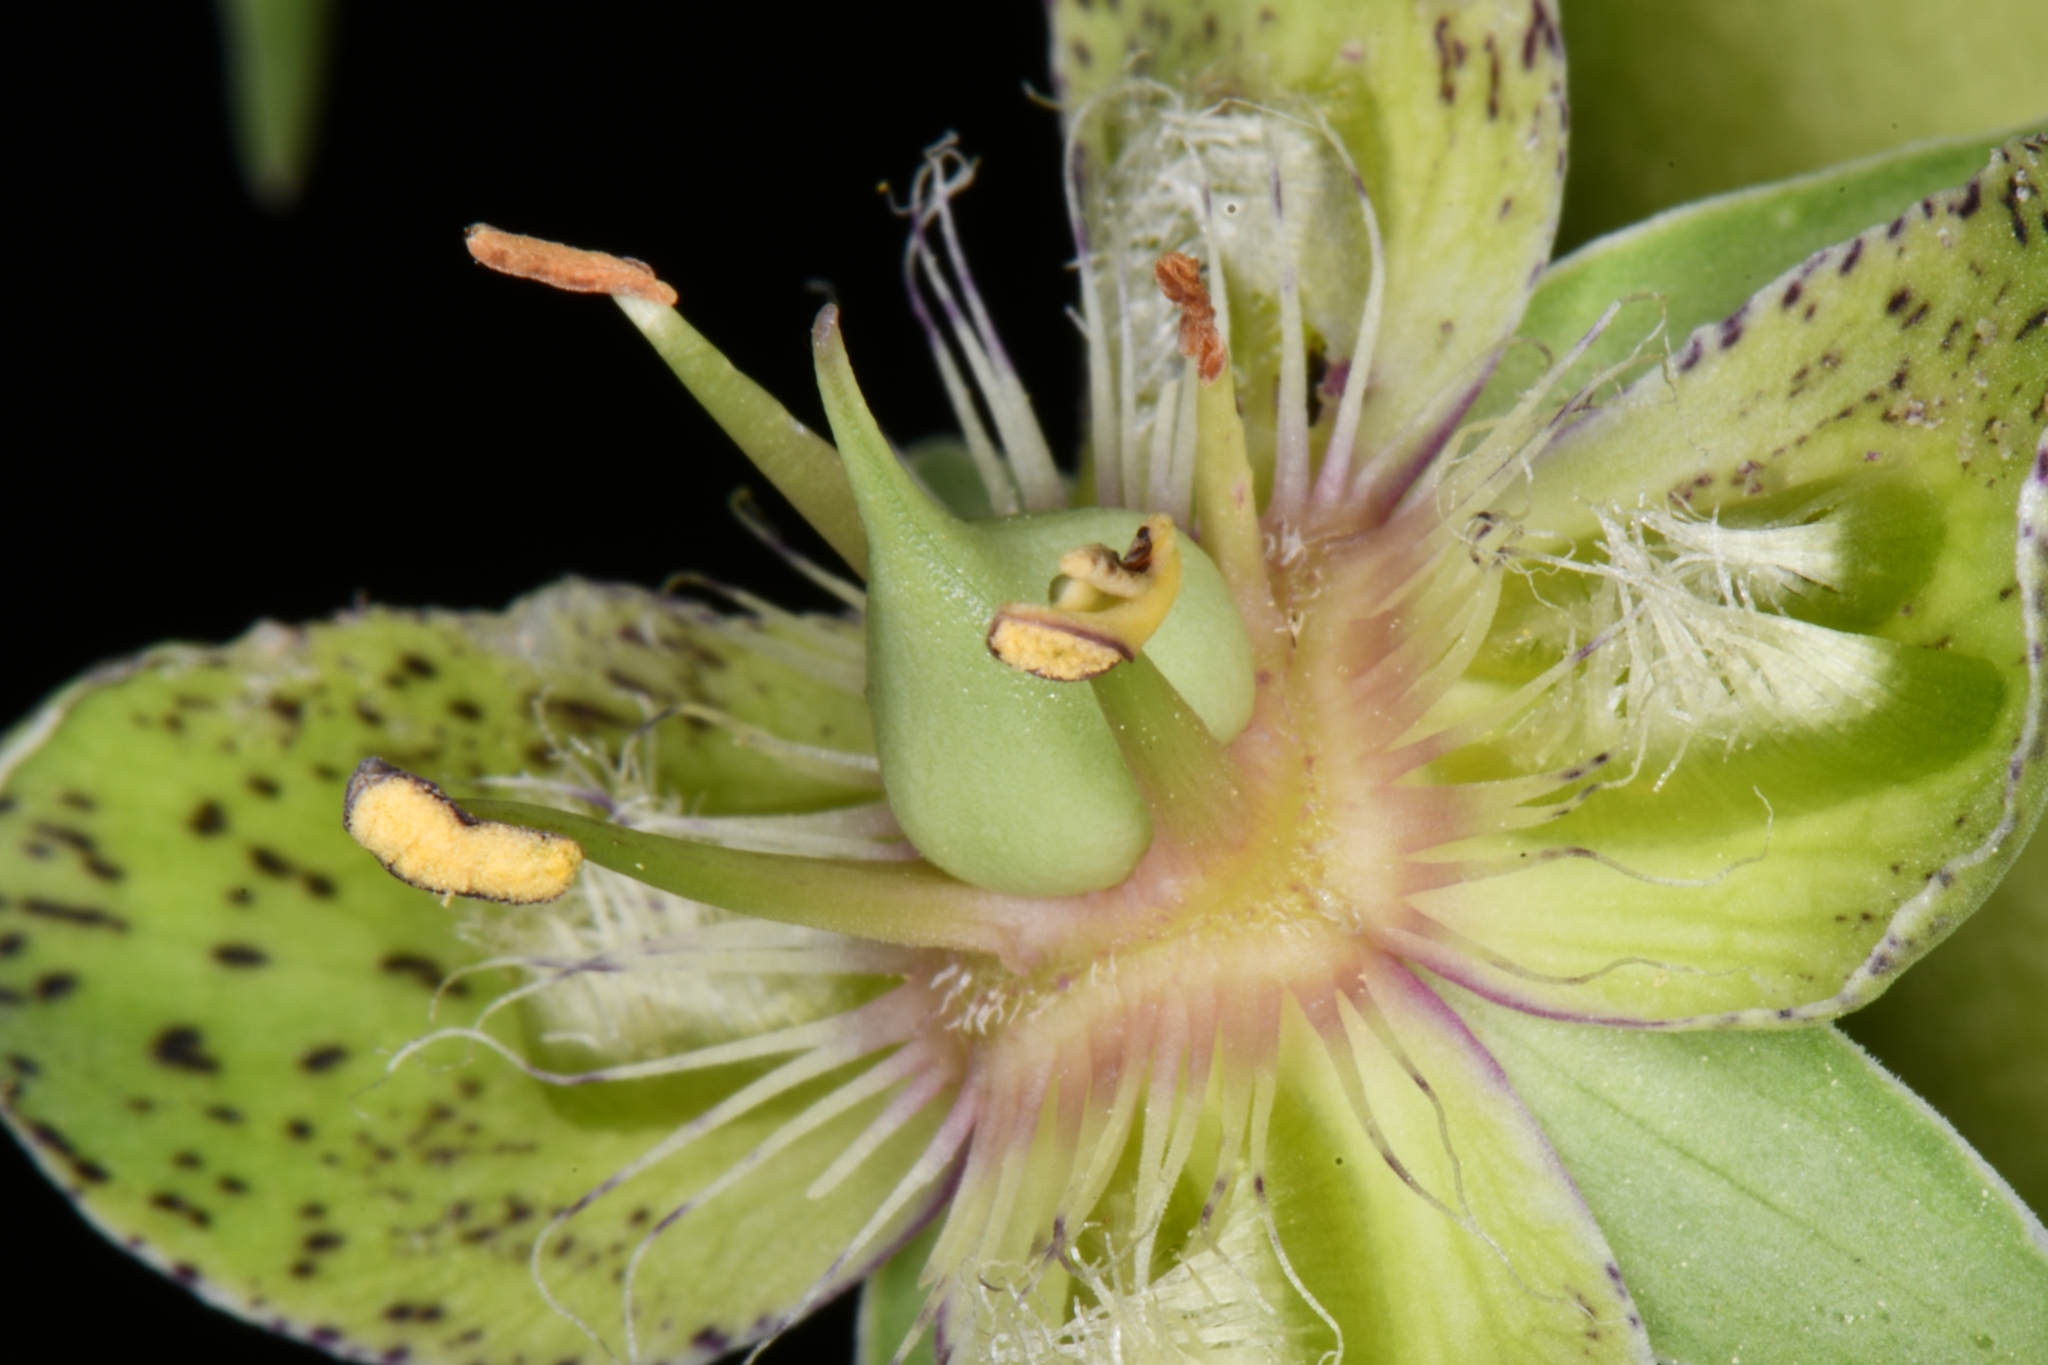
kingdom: Plantae
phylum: Tracheophyta
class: Magnoliopsida
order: Gentianales
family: Gentianaceae
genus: Frasera
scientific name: Frasera speciosa
